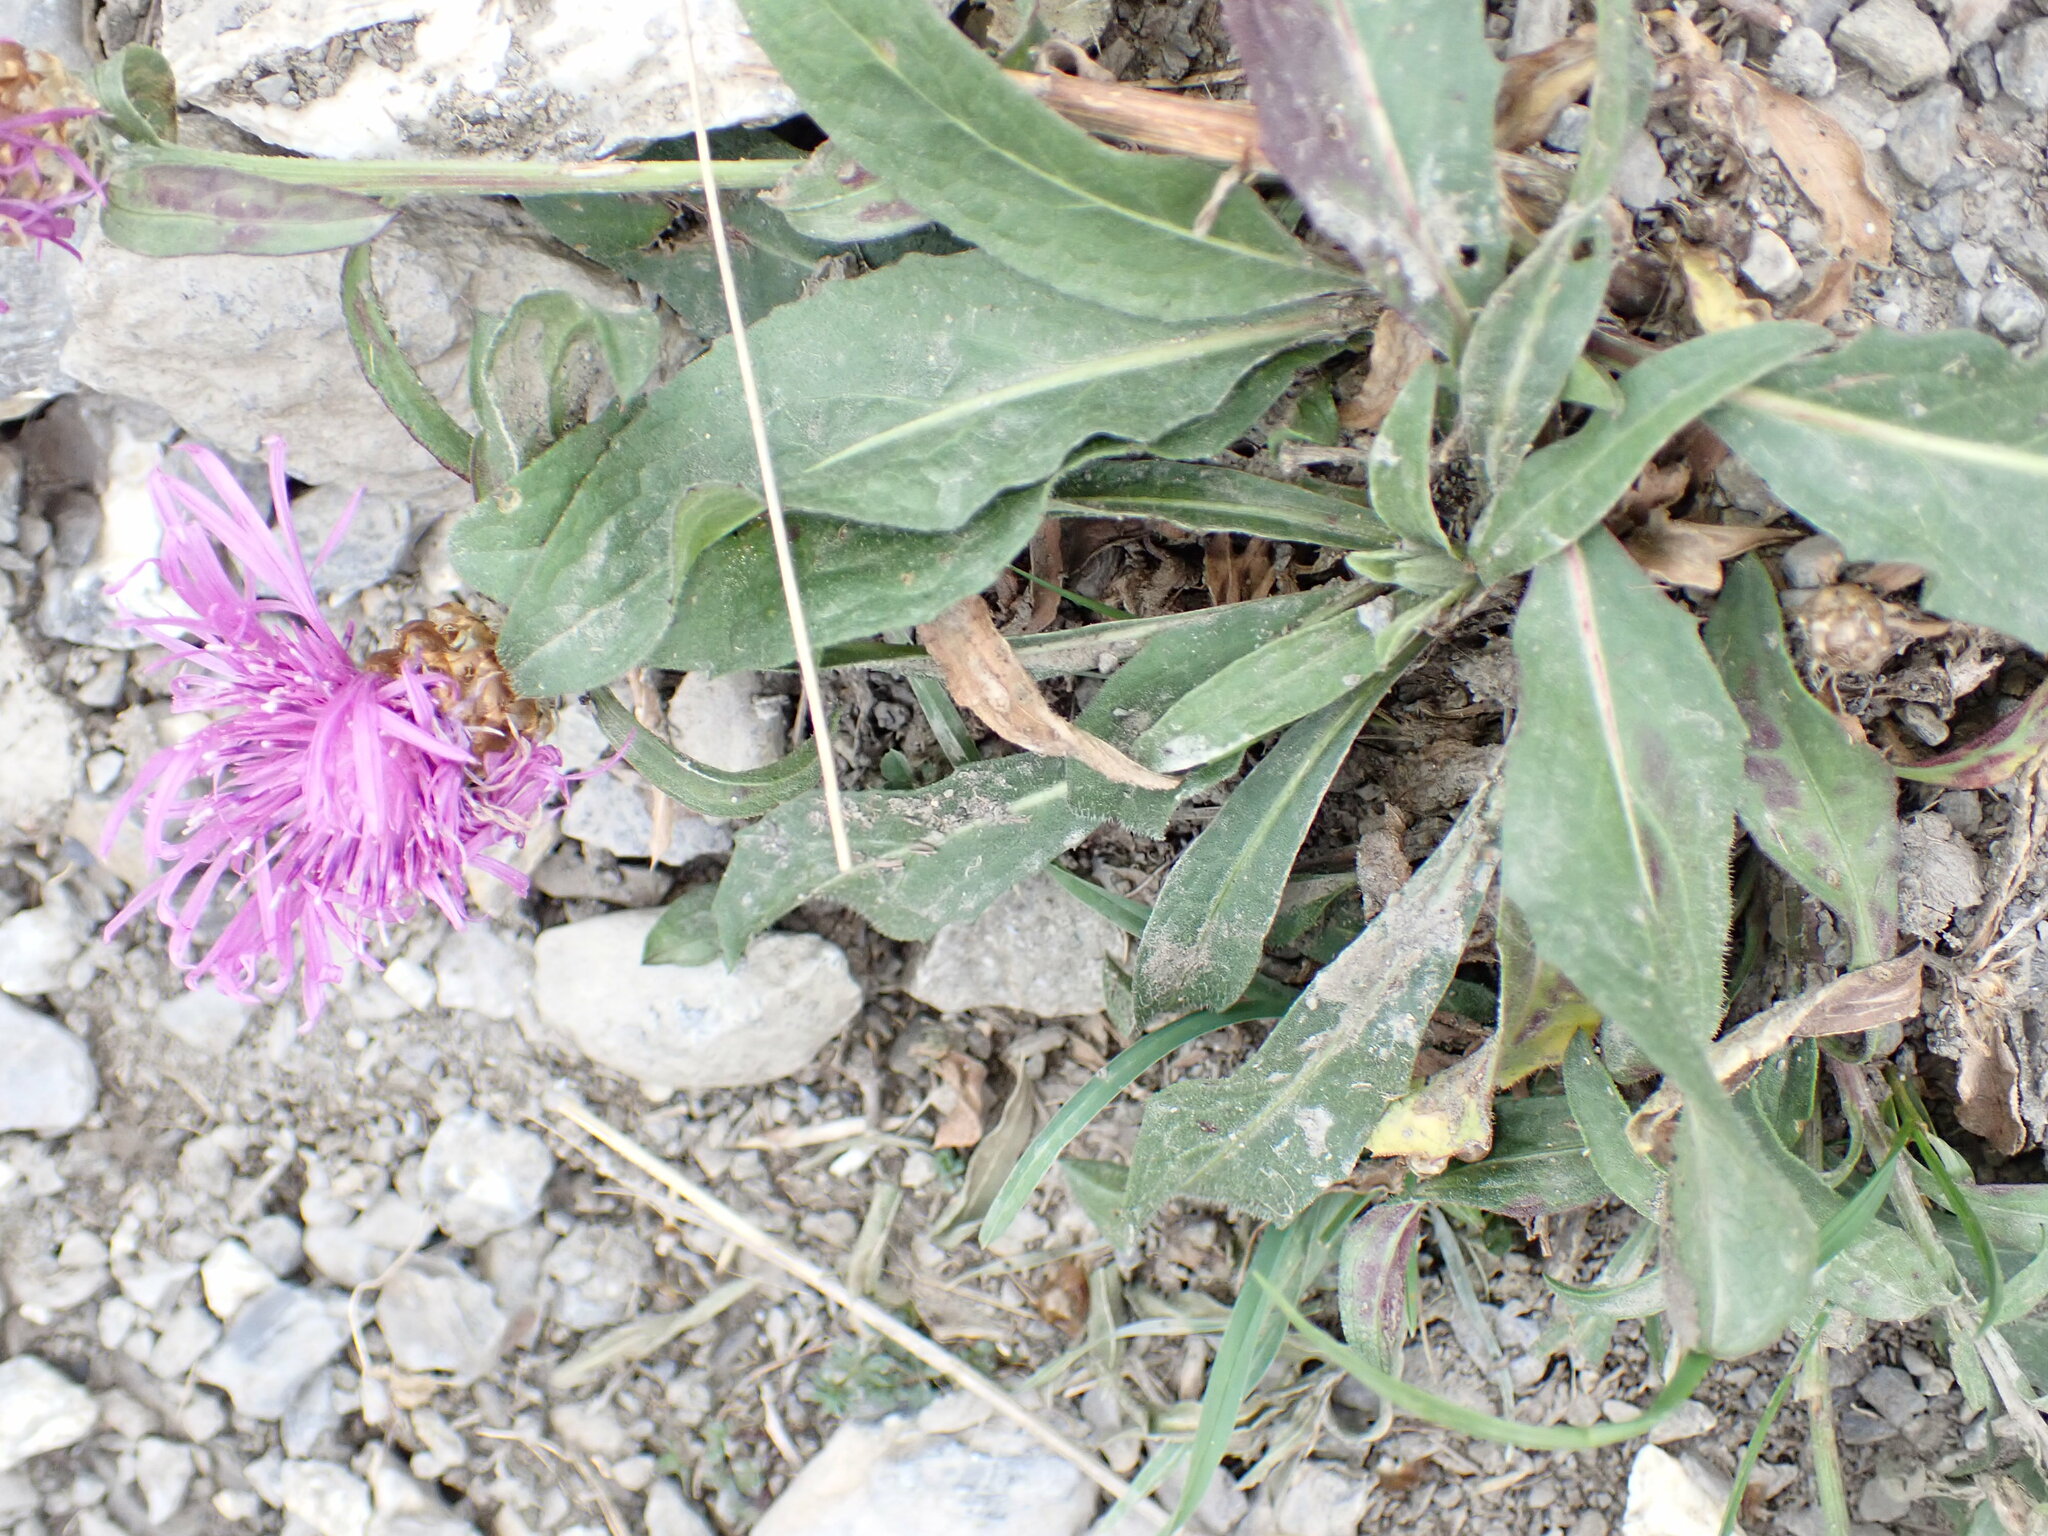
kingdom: Plantae
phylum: Tracheophyta
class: Magnoliopsida
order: Asterales
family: Asteraceae
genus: Centaurea
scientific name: Centaurea jacea
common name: Brown knapweed
